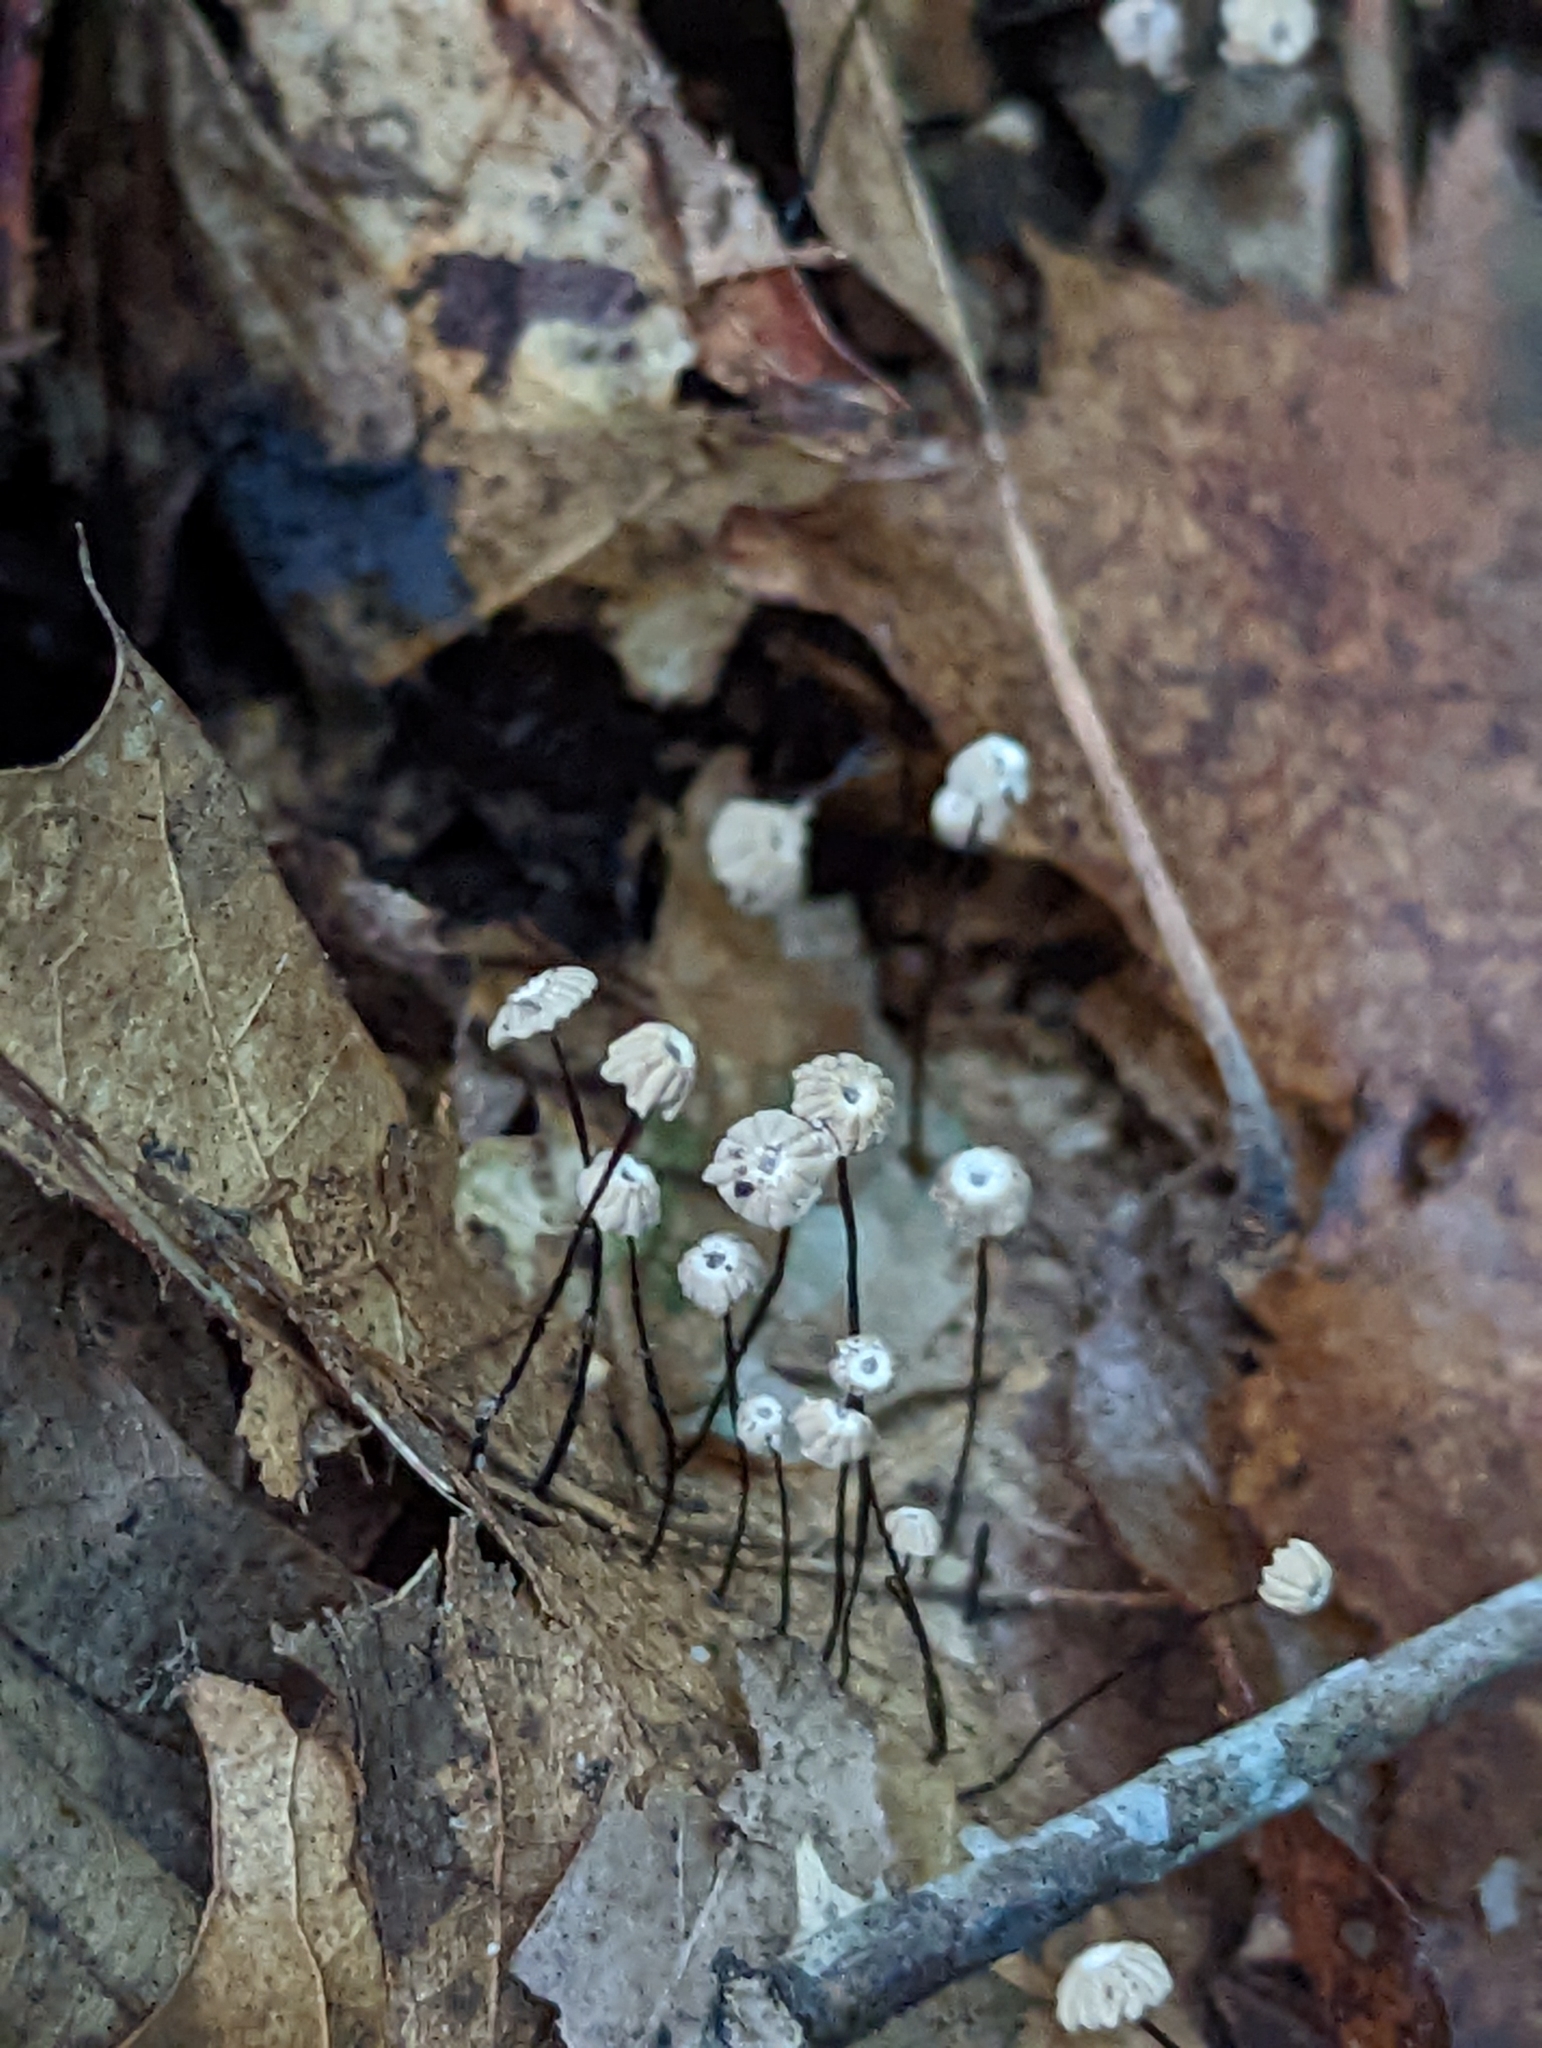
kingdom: Fungi
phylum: Basidiomycota
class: Agaricomycetes
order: Agaricales
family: Marasmiaceae
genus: Marasmius
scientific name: Marasmius capillaris
